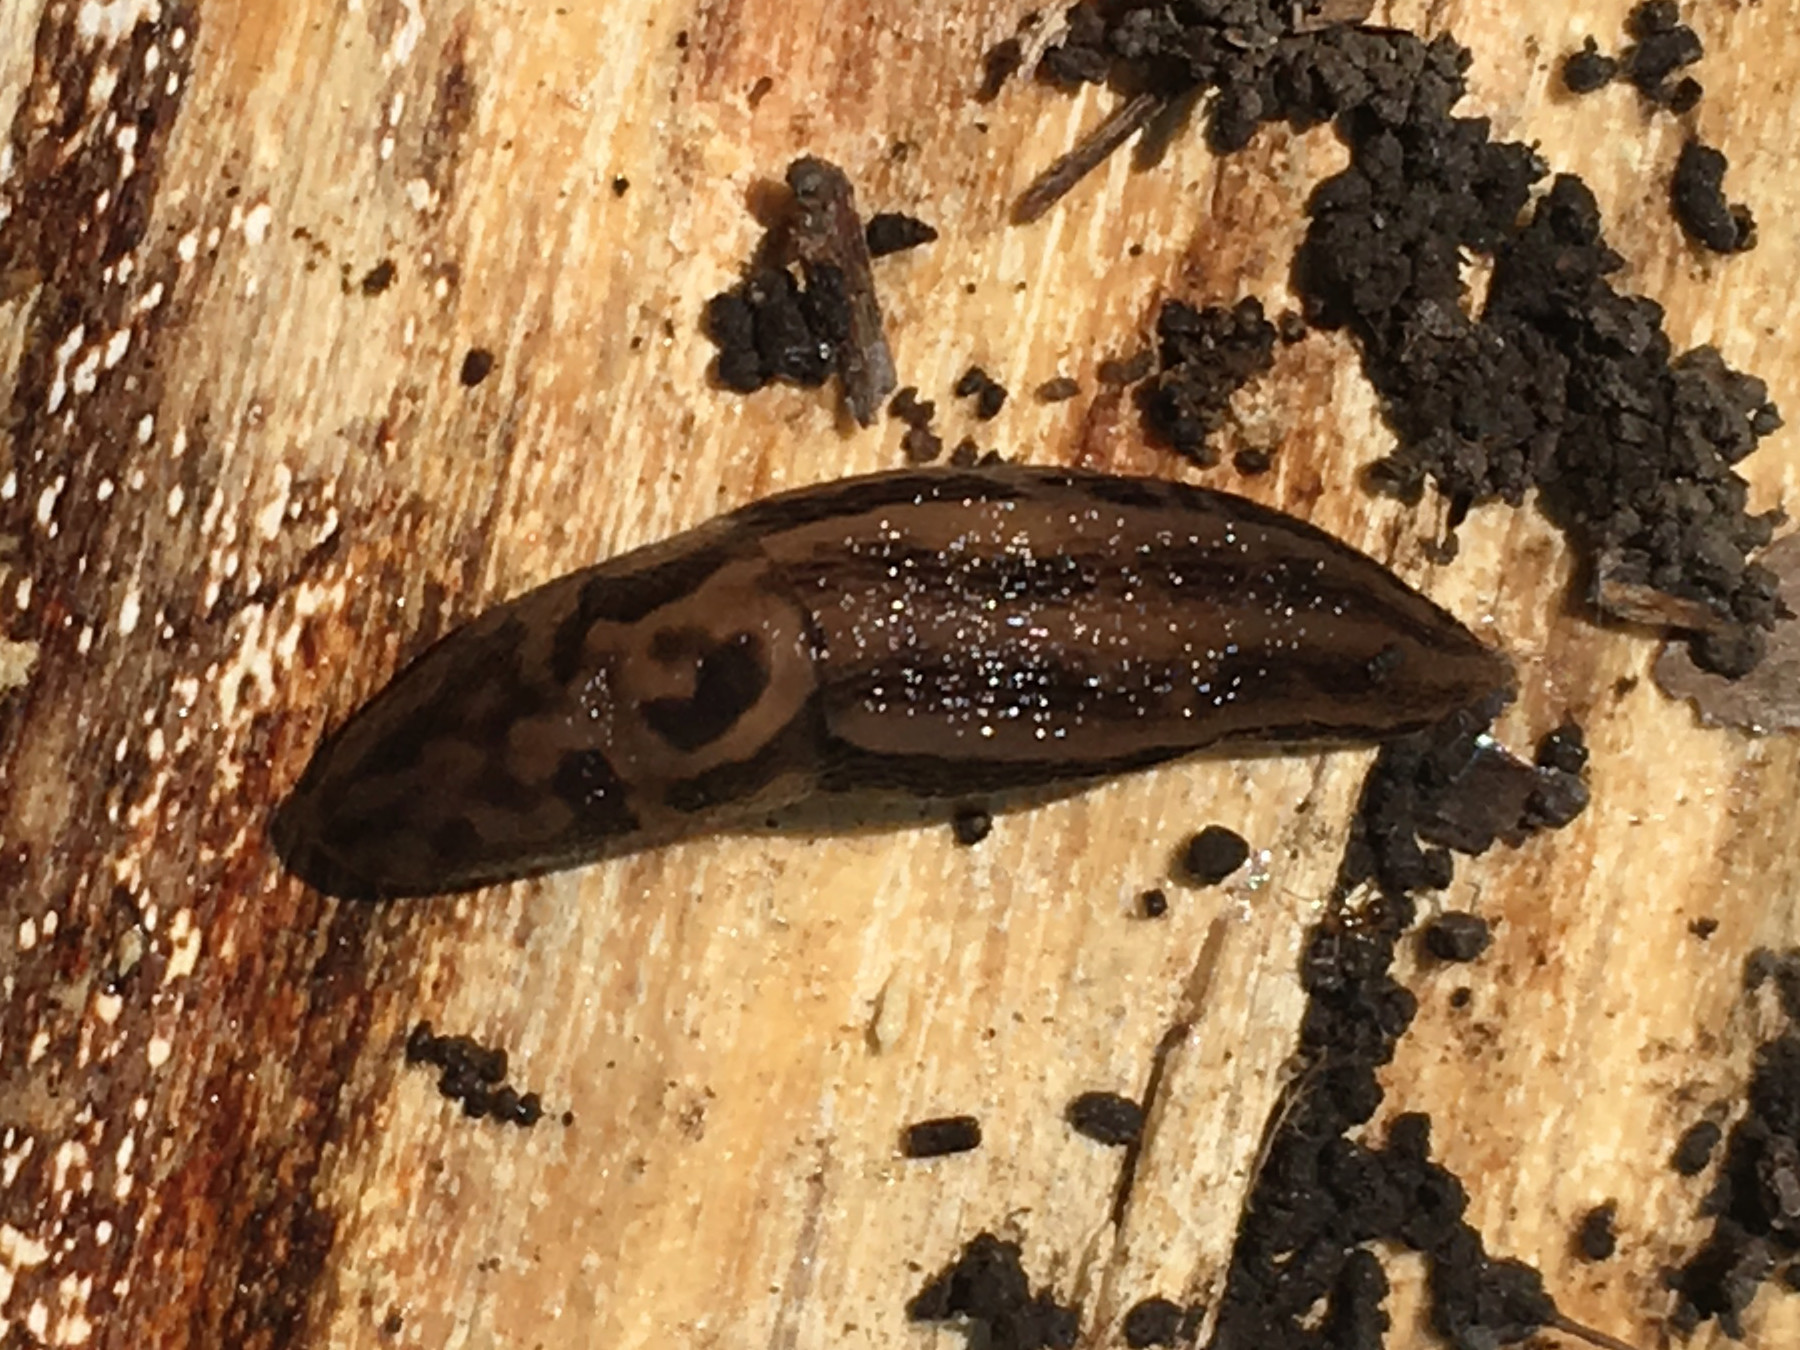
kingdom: Animalia
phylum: Mollusca
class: Gastropoda
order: Stylommatophora
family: Limacidae
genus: Limax
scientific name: Limax maximus
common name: Great grey slug
